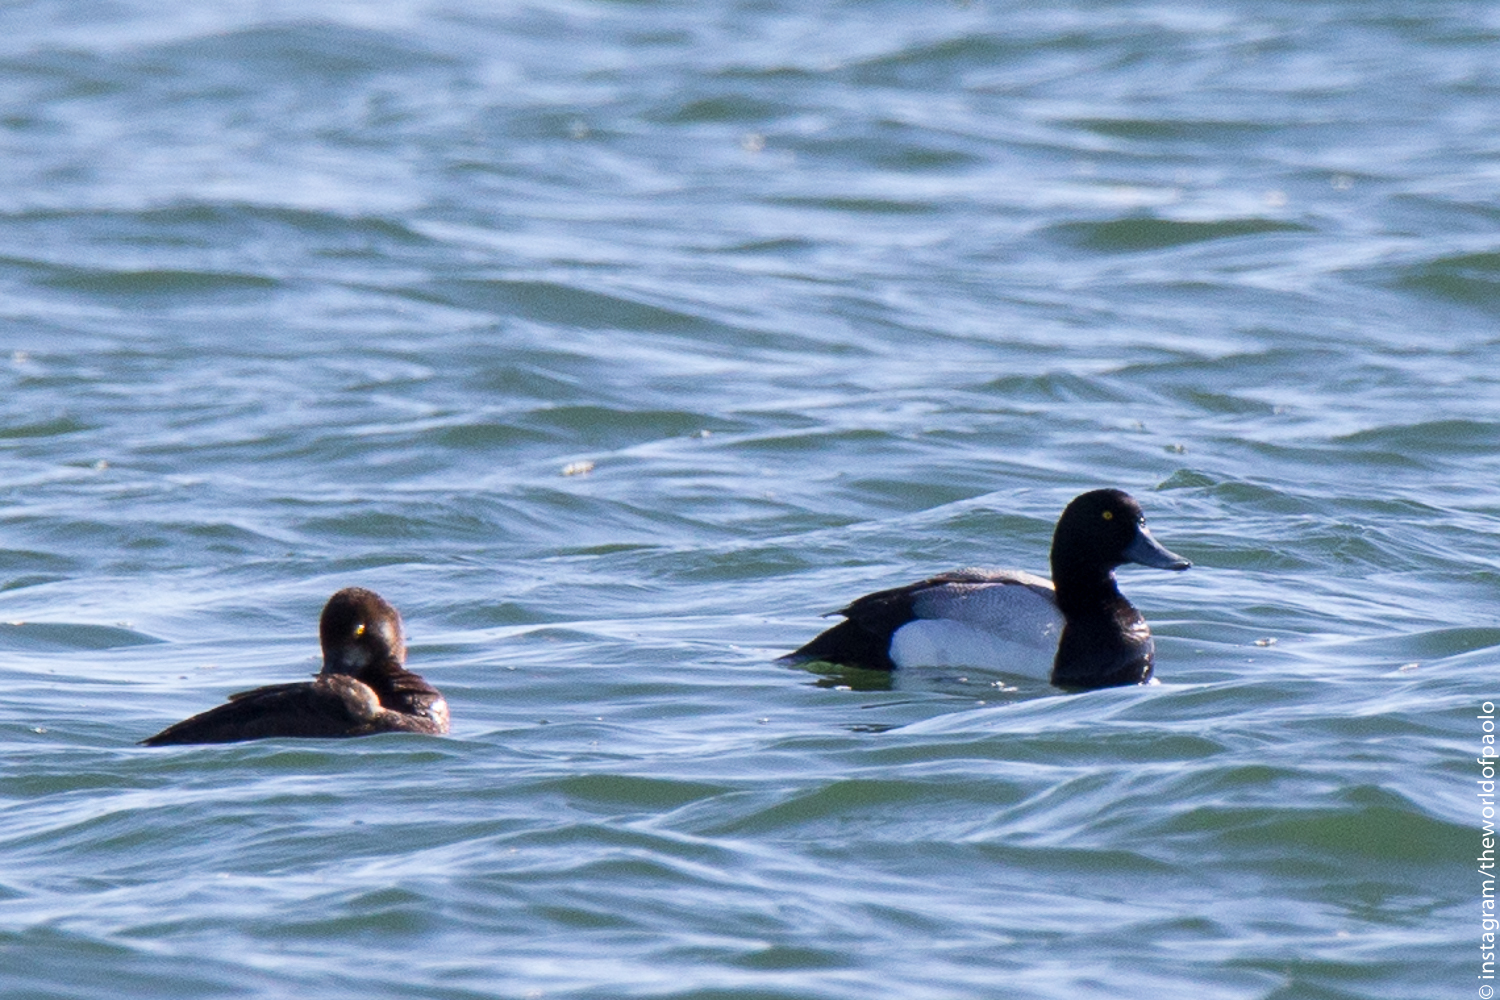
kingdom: Animalia
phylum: Chordata
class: Aves
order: Anseriformes
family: Anatidae
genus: Aythya
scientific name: Aythya marila
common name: Greater scaup
